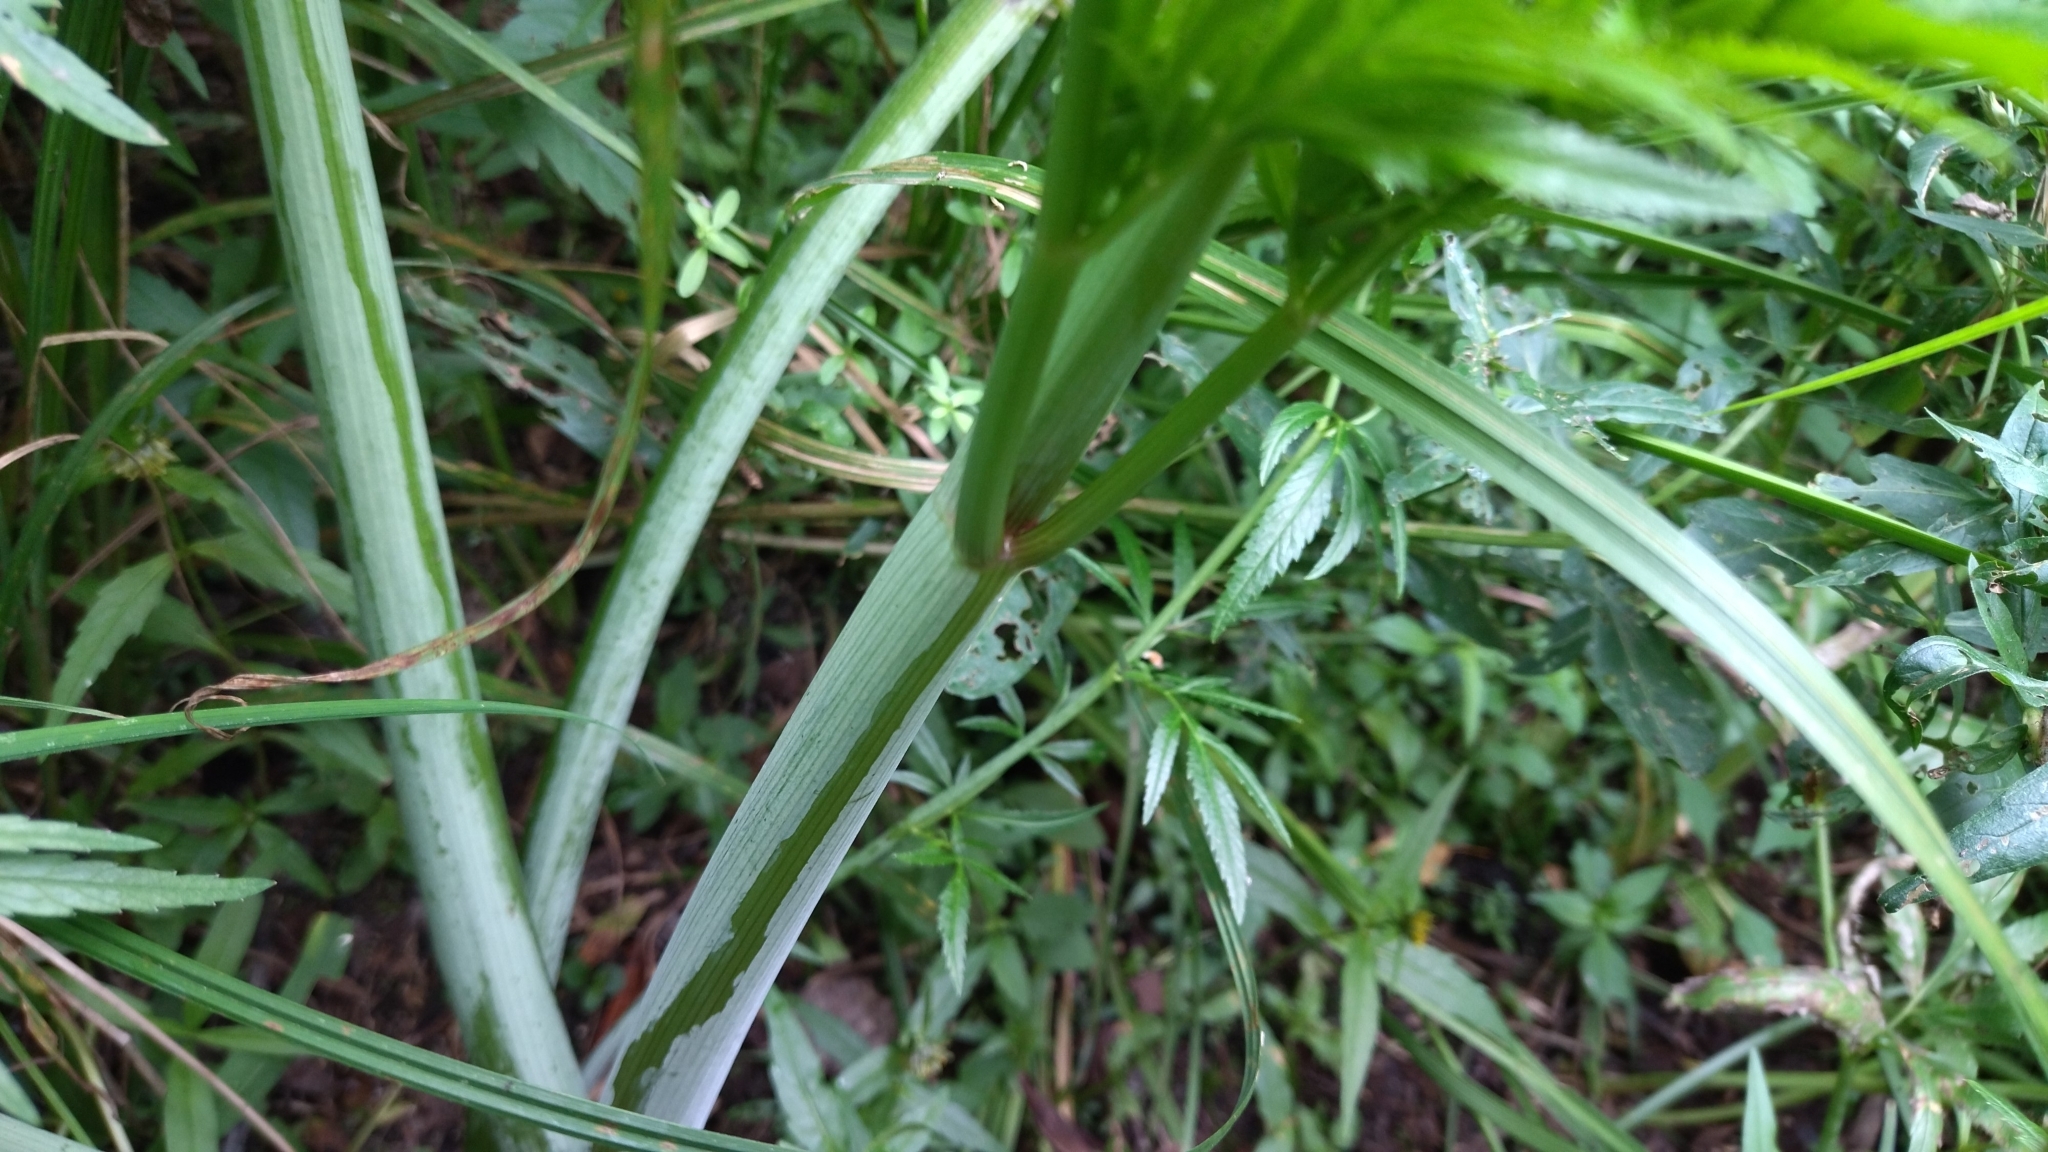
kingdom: Plantae
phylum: Tracheophyta
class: Magnoliopsida
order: Apiales
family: Apiaceae
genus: Cicuta
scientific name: Cicuta virosa
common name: Cowbane
